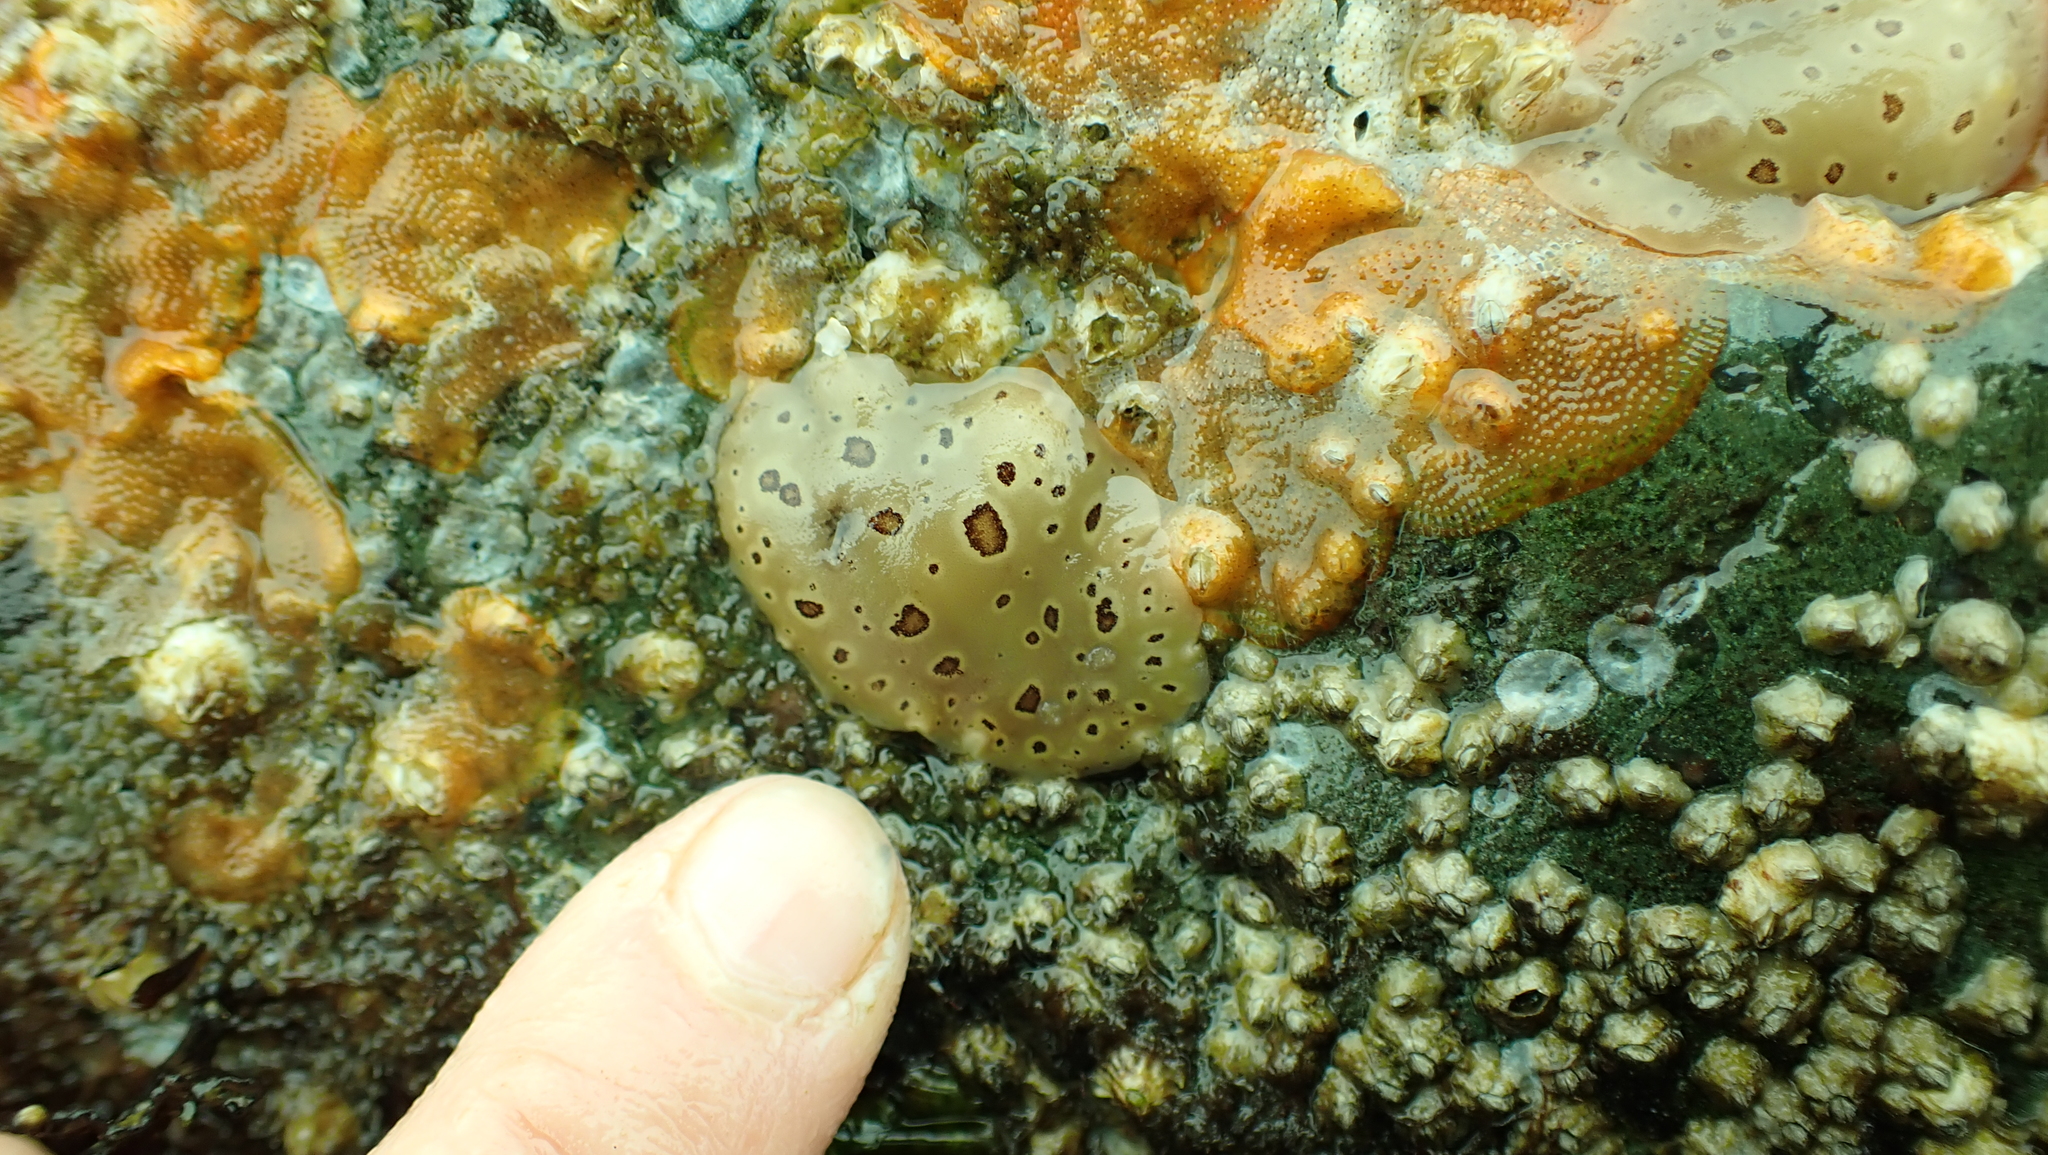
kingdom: Animalia
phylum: Mollusca
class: Gastropoda
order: Nudibranchia
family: Discodorididae
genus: Diaulula
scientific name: Diaulula odonoghuei
